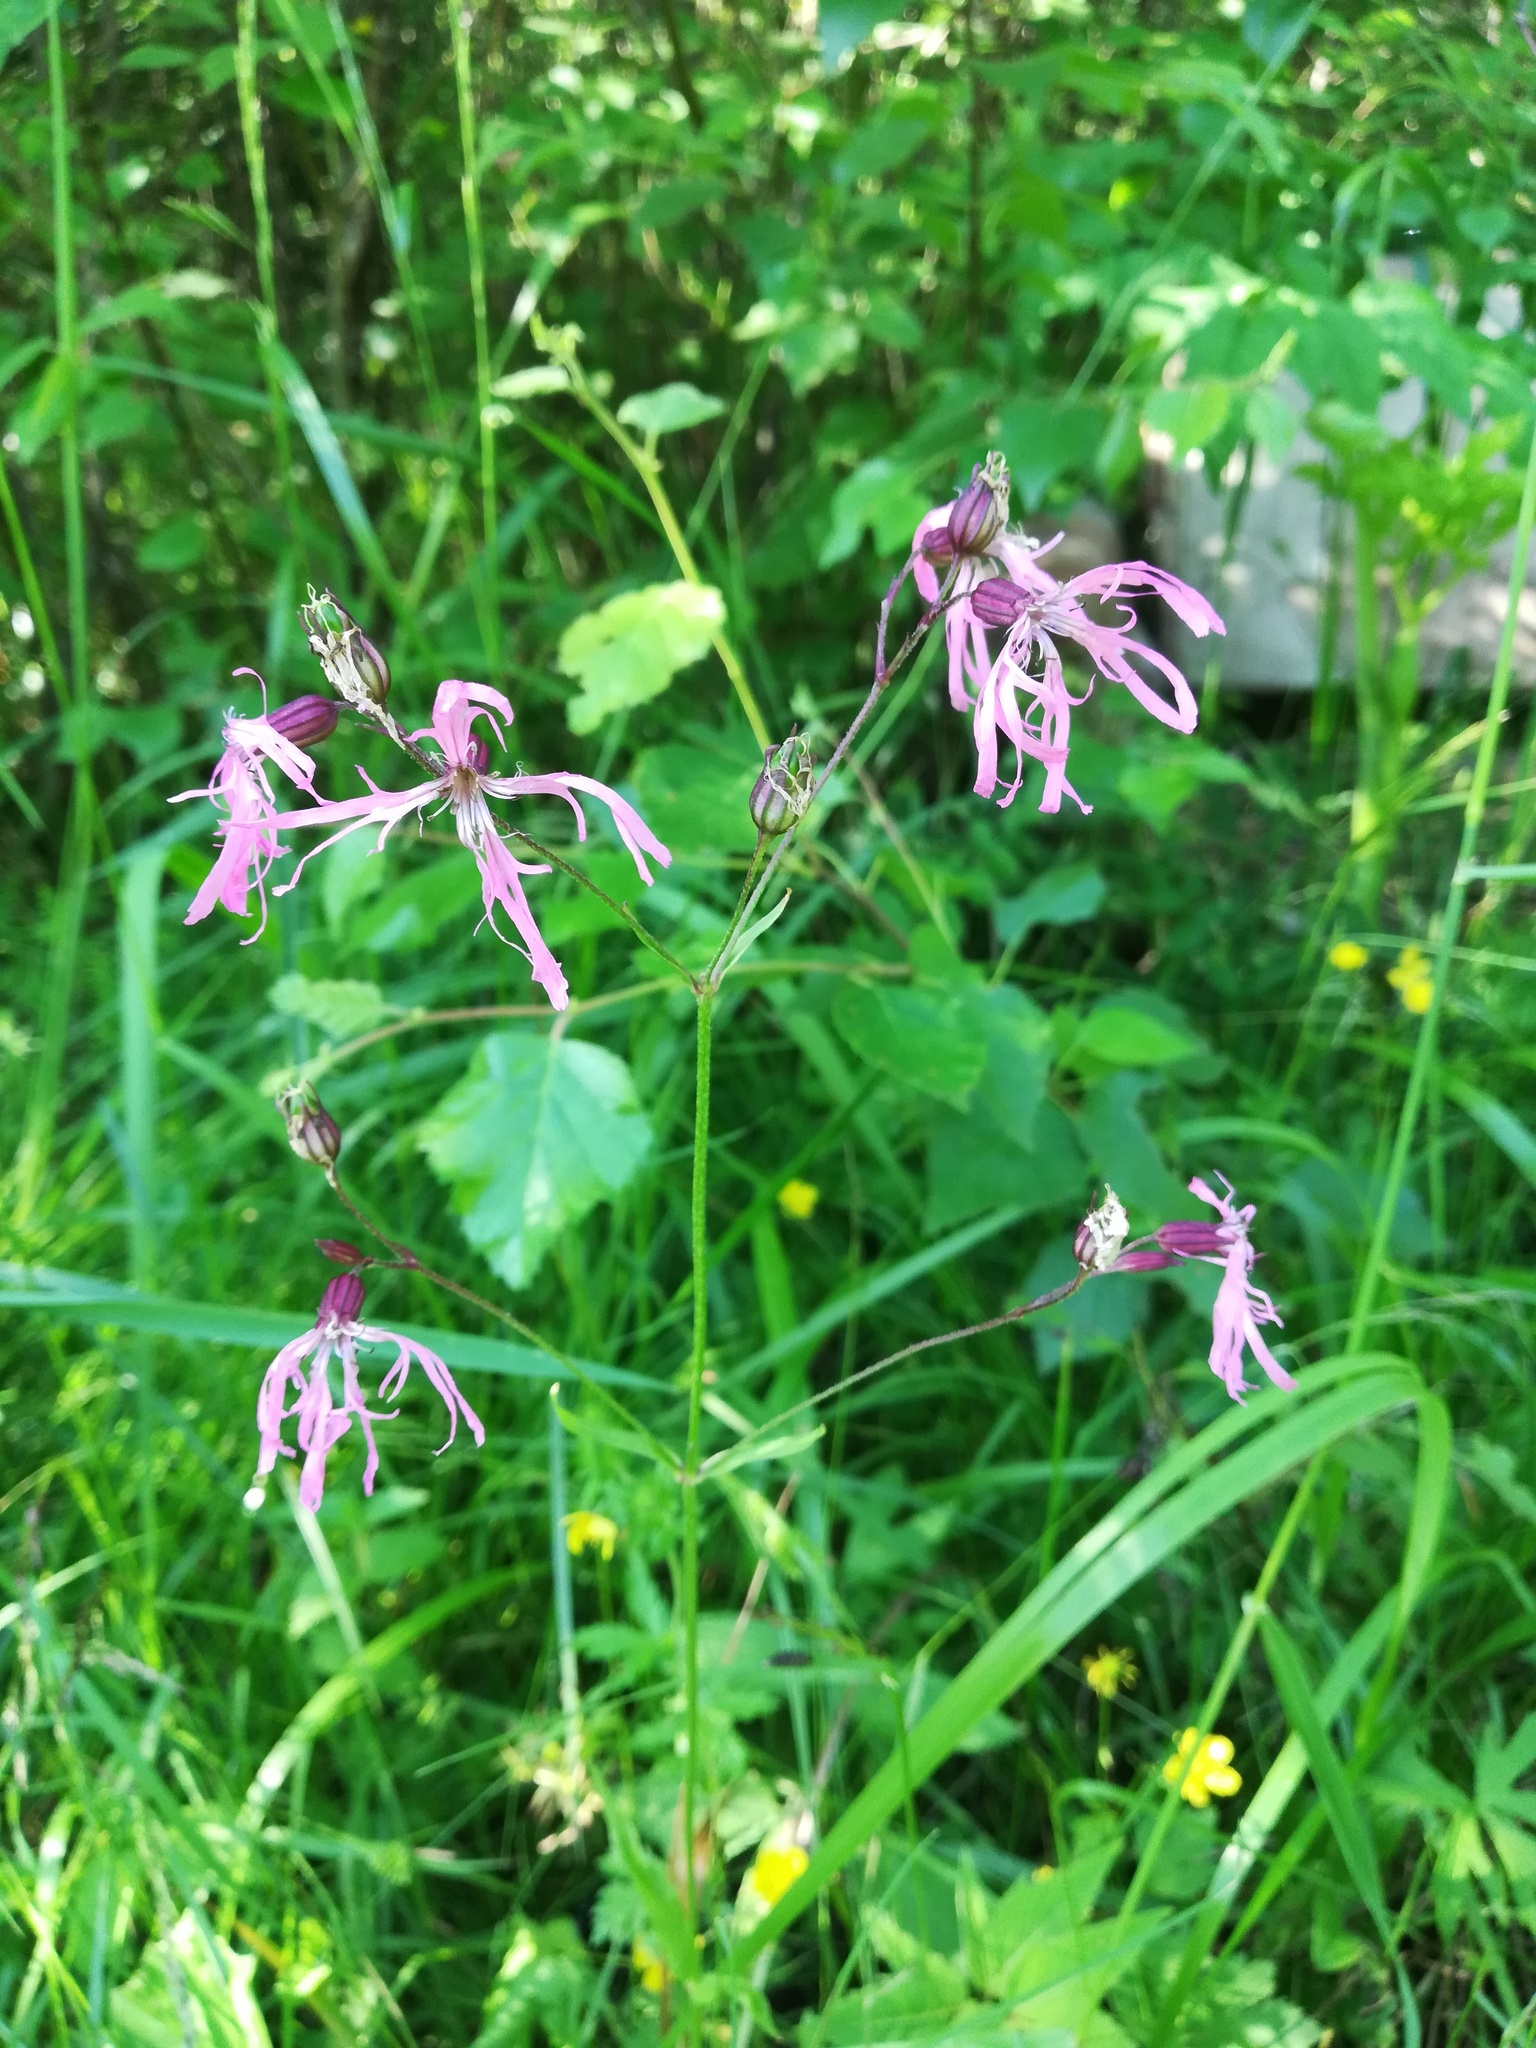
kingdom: Plantae
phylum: Tracheophyta
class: Magnoliopsida
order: Caryophyllales
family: Caryophyllaceae
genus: Silene
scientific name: Silene flos-cuculi
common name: Ragged-robin
